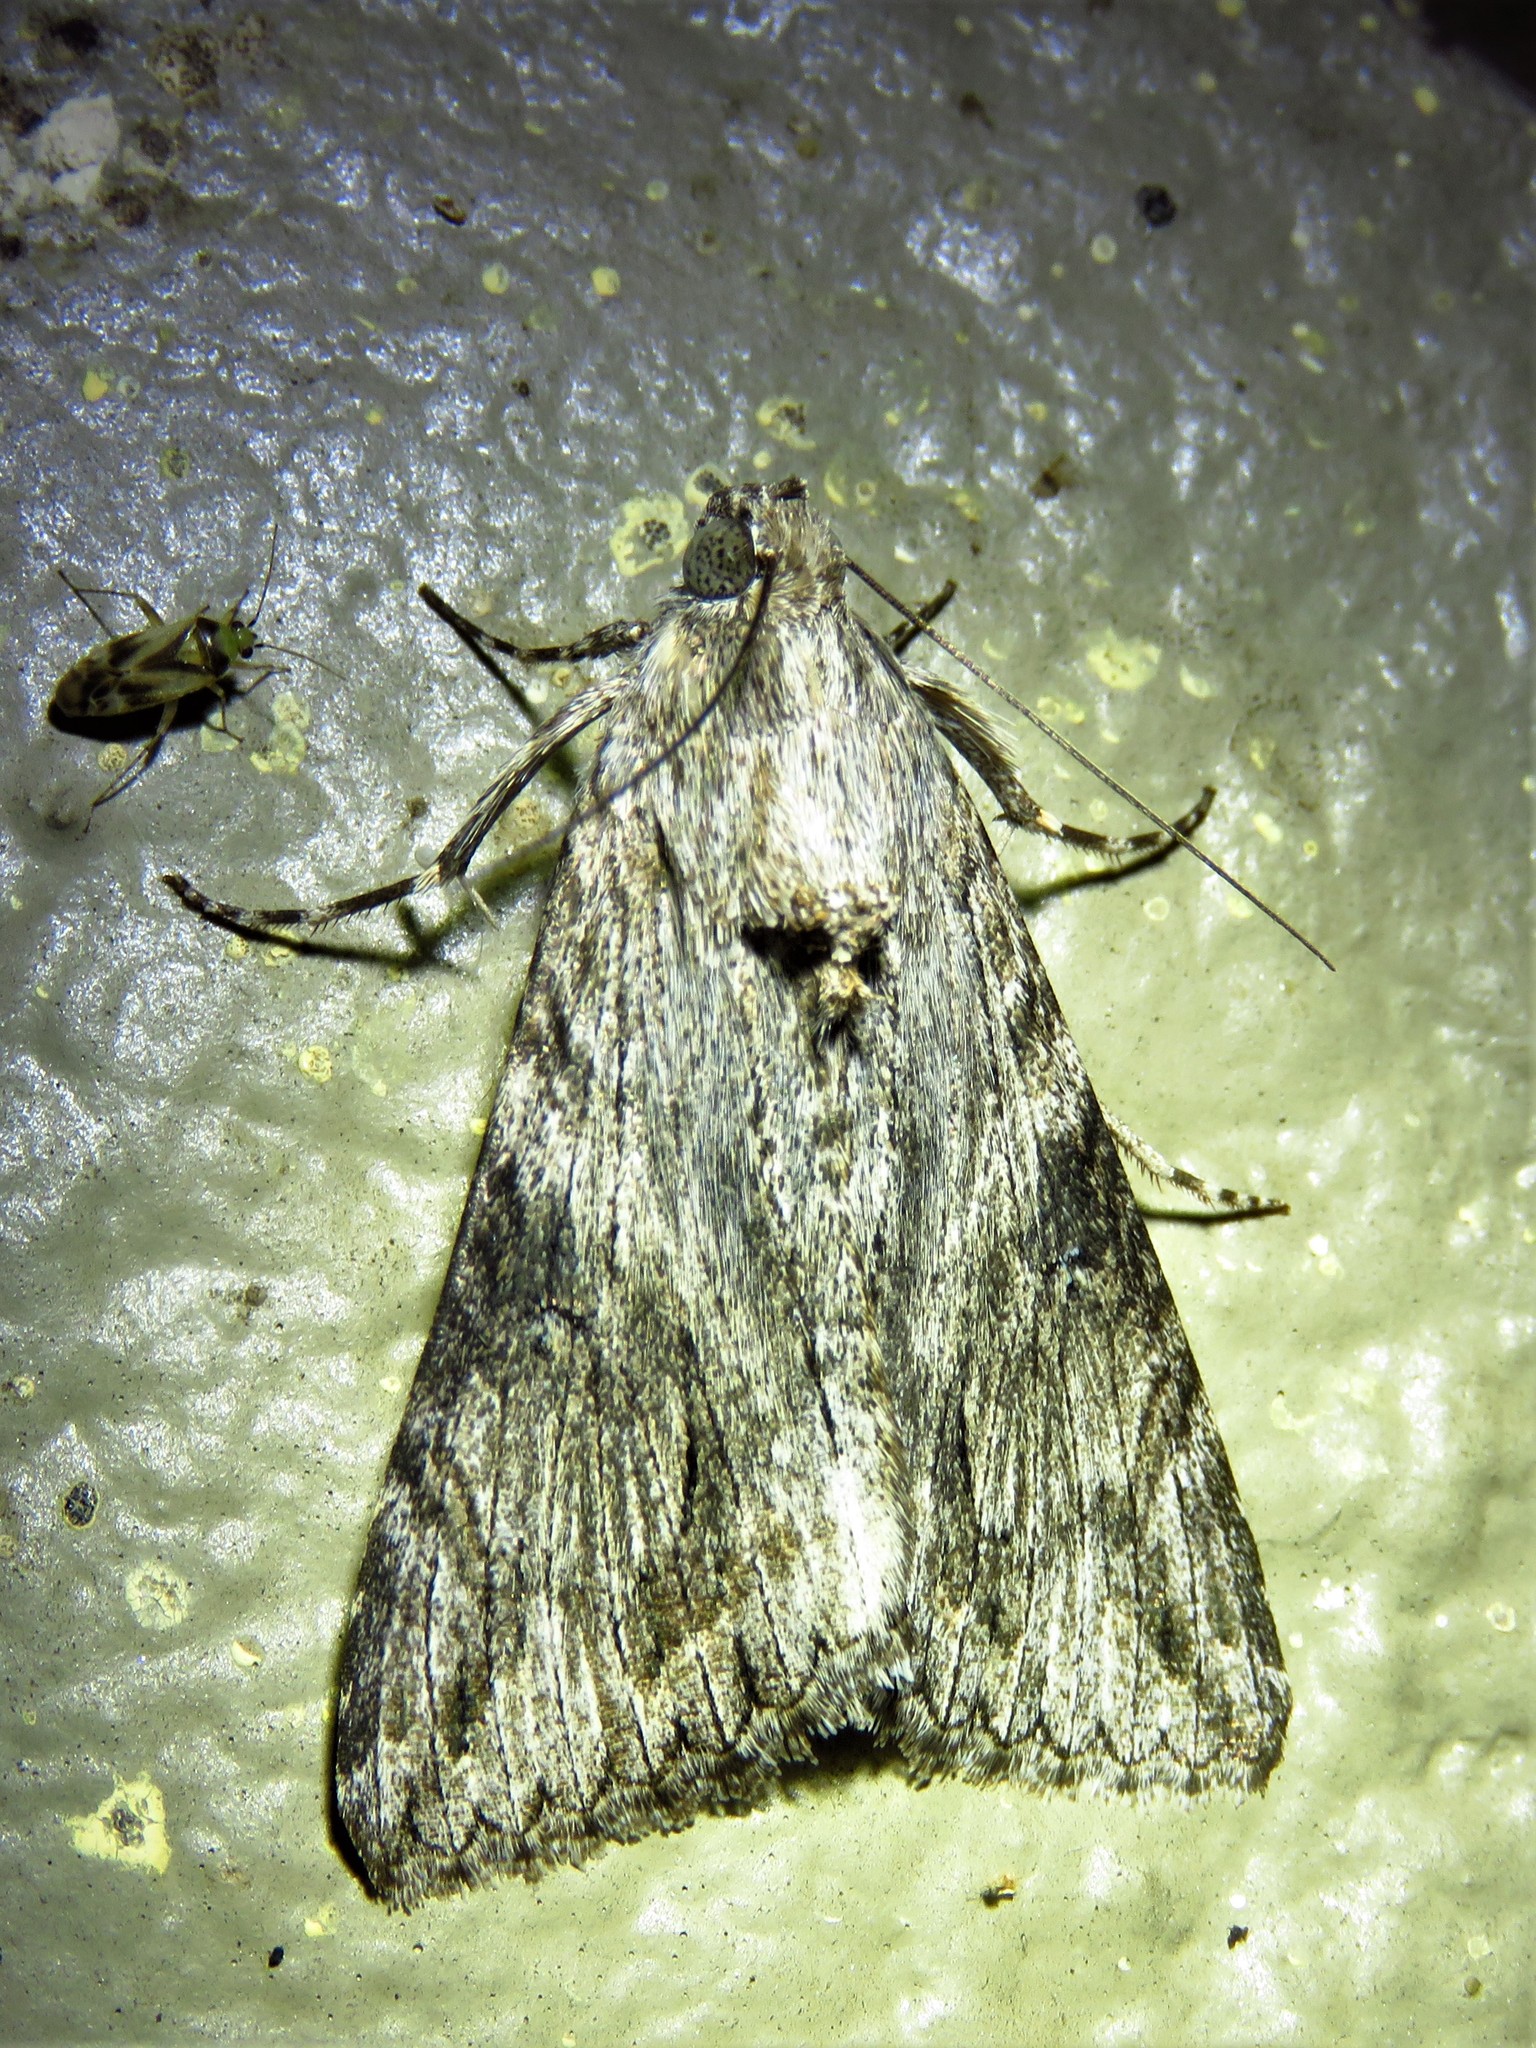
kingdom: Animalia
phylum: Arthropoda
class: Insecta
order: Lepidoptera
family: Erebidae
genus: Melipotis
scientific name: Melipotis jucunda
